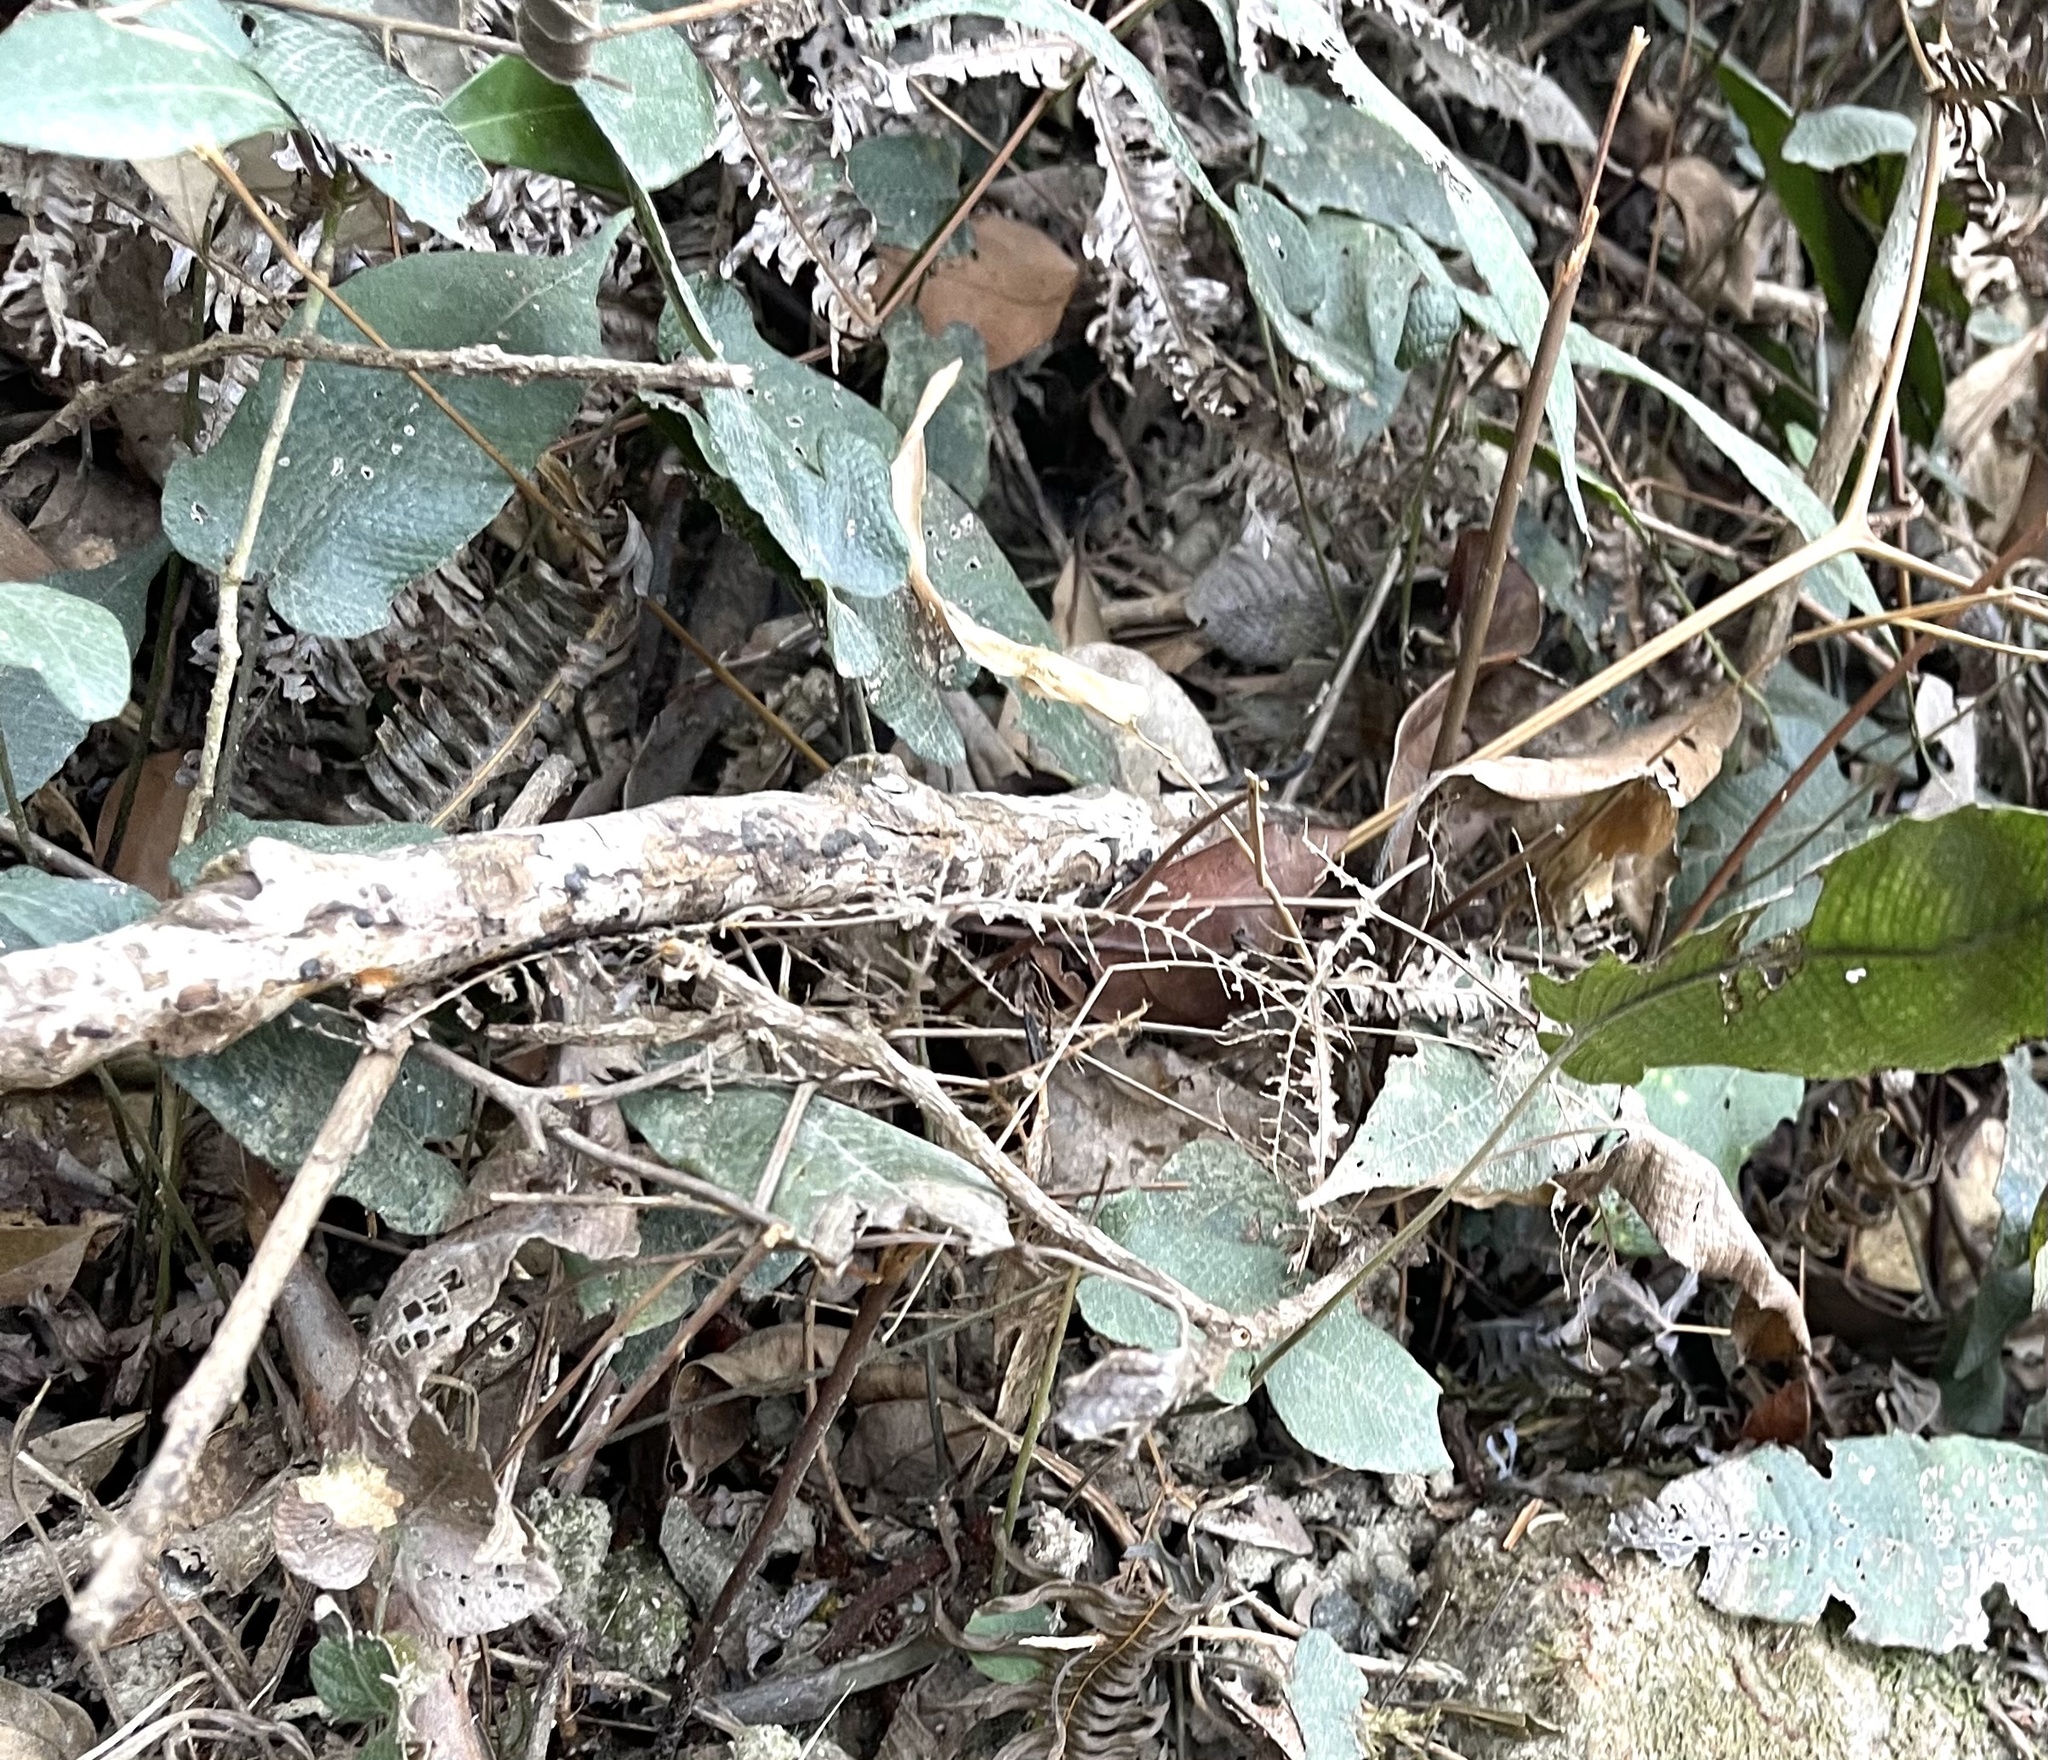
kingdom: Plantae
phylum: Tracheophyta
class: Polypodiopsida
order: Polypodiales
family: Thelypteridaceae
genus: Grypothrix
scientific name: Grypothrix simplex
